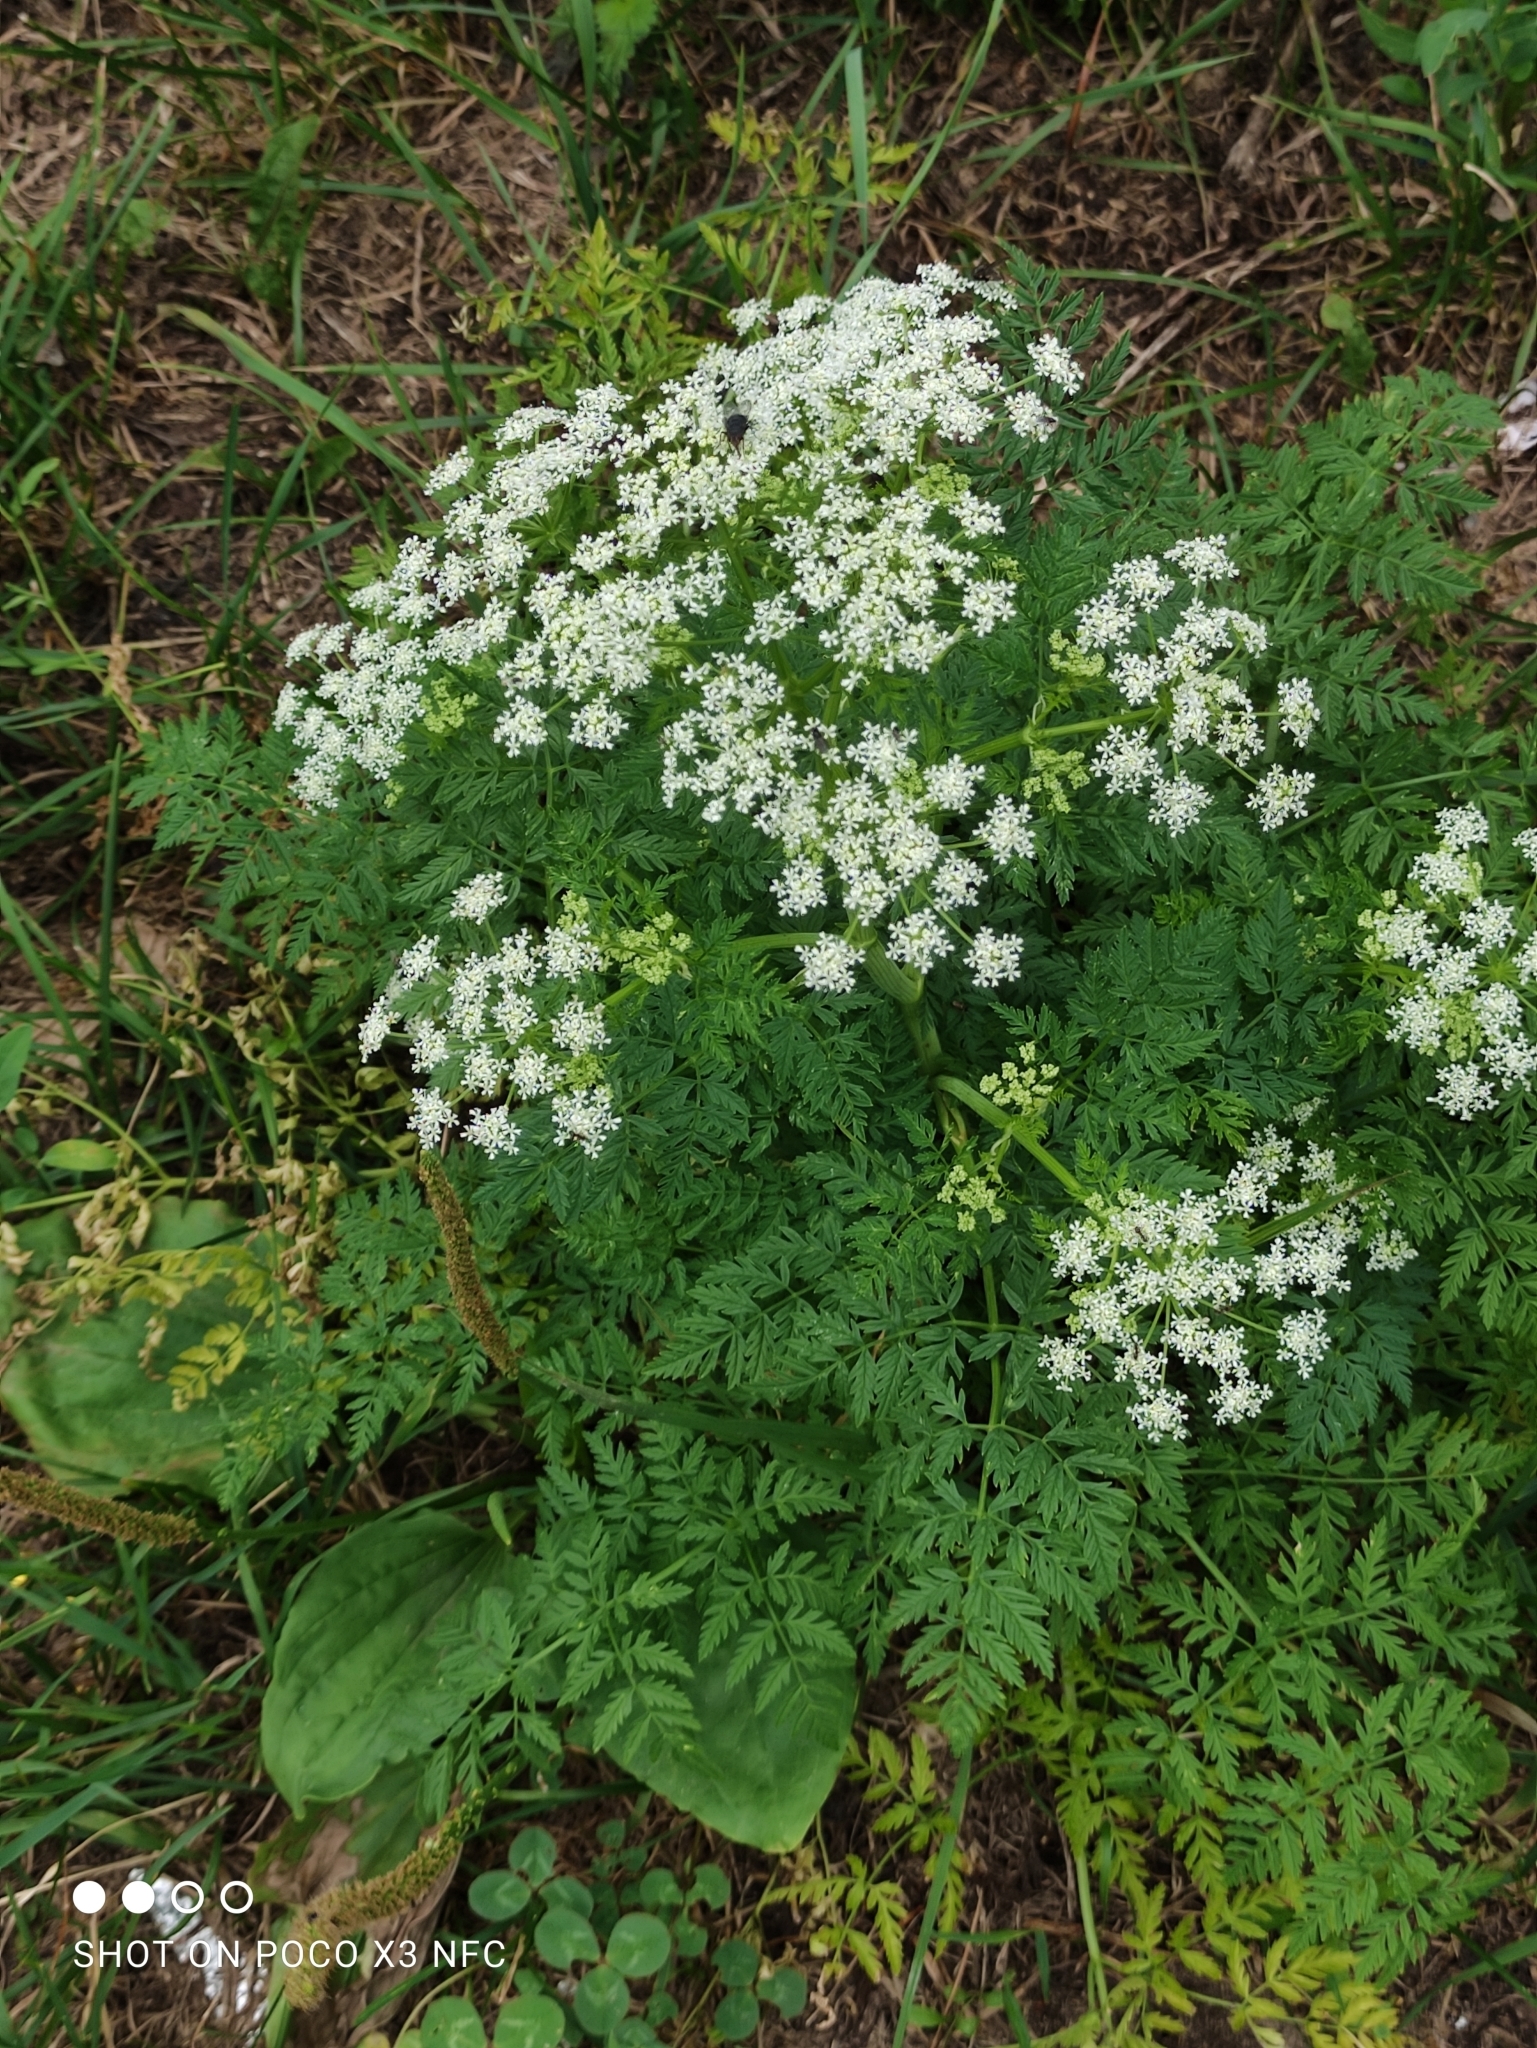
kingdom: Plantae
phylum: Tracheophyta
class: Magnoliopsida
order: Apiales
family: Apiaceae
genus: Anthriscus
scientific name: Anthriscus sylvestris
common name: Cow parsley
